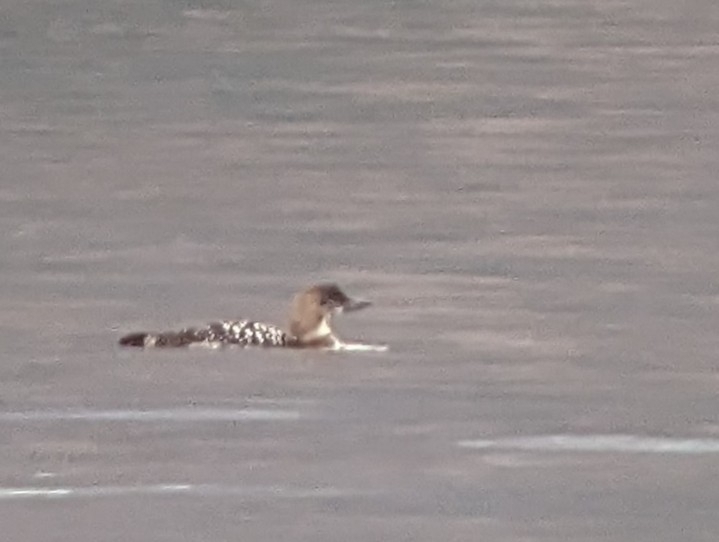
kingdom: Animalia
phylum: Chordata
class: Aves
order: Gaviiformes
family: Gaviidae
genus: Gavia
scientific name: Gavia immer
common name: Common loon
